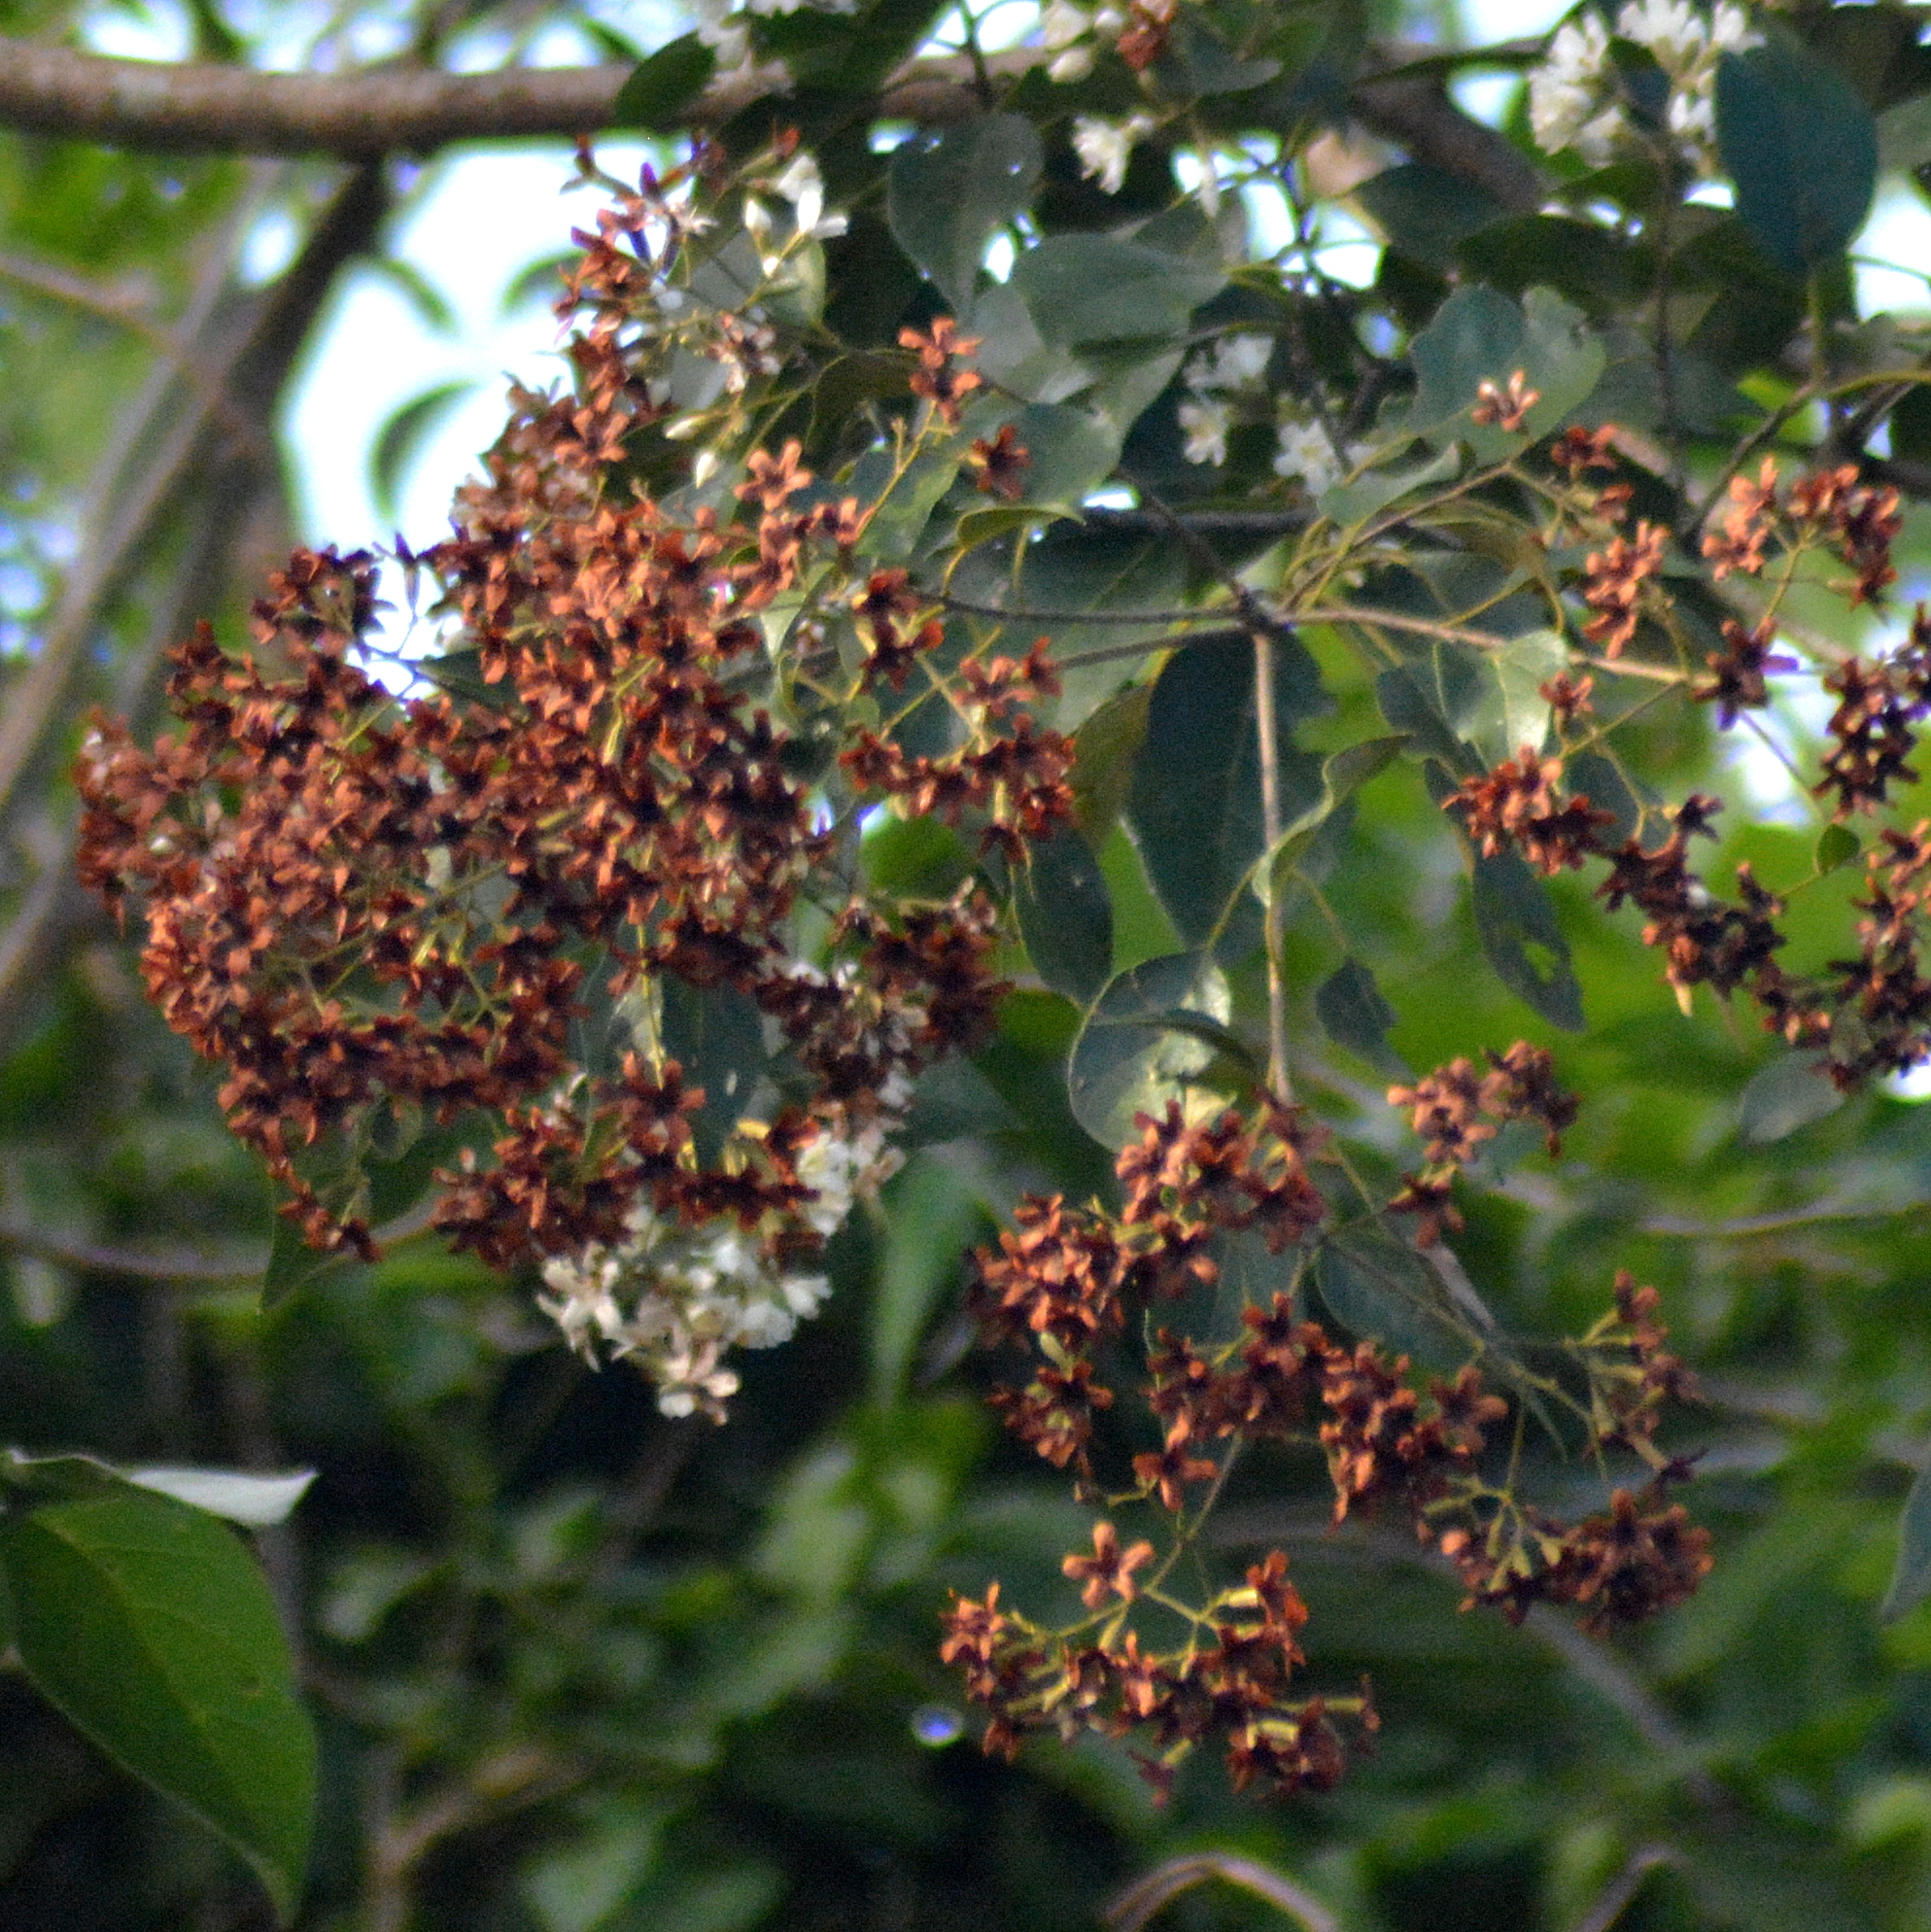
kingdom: Plantae
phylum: Tracheophyta
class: Magnoliopsida
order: Boraginales
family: Cordiaceae
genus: Cordia
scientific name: Cordia trichotoma
